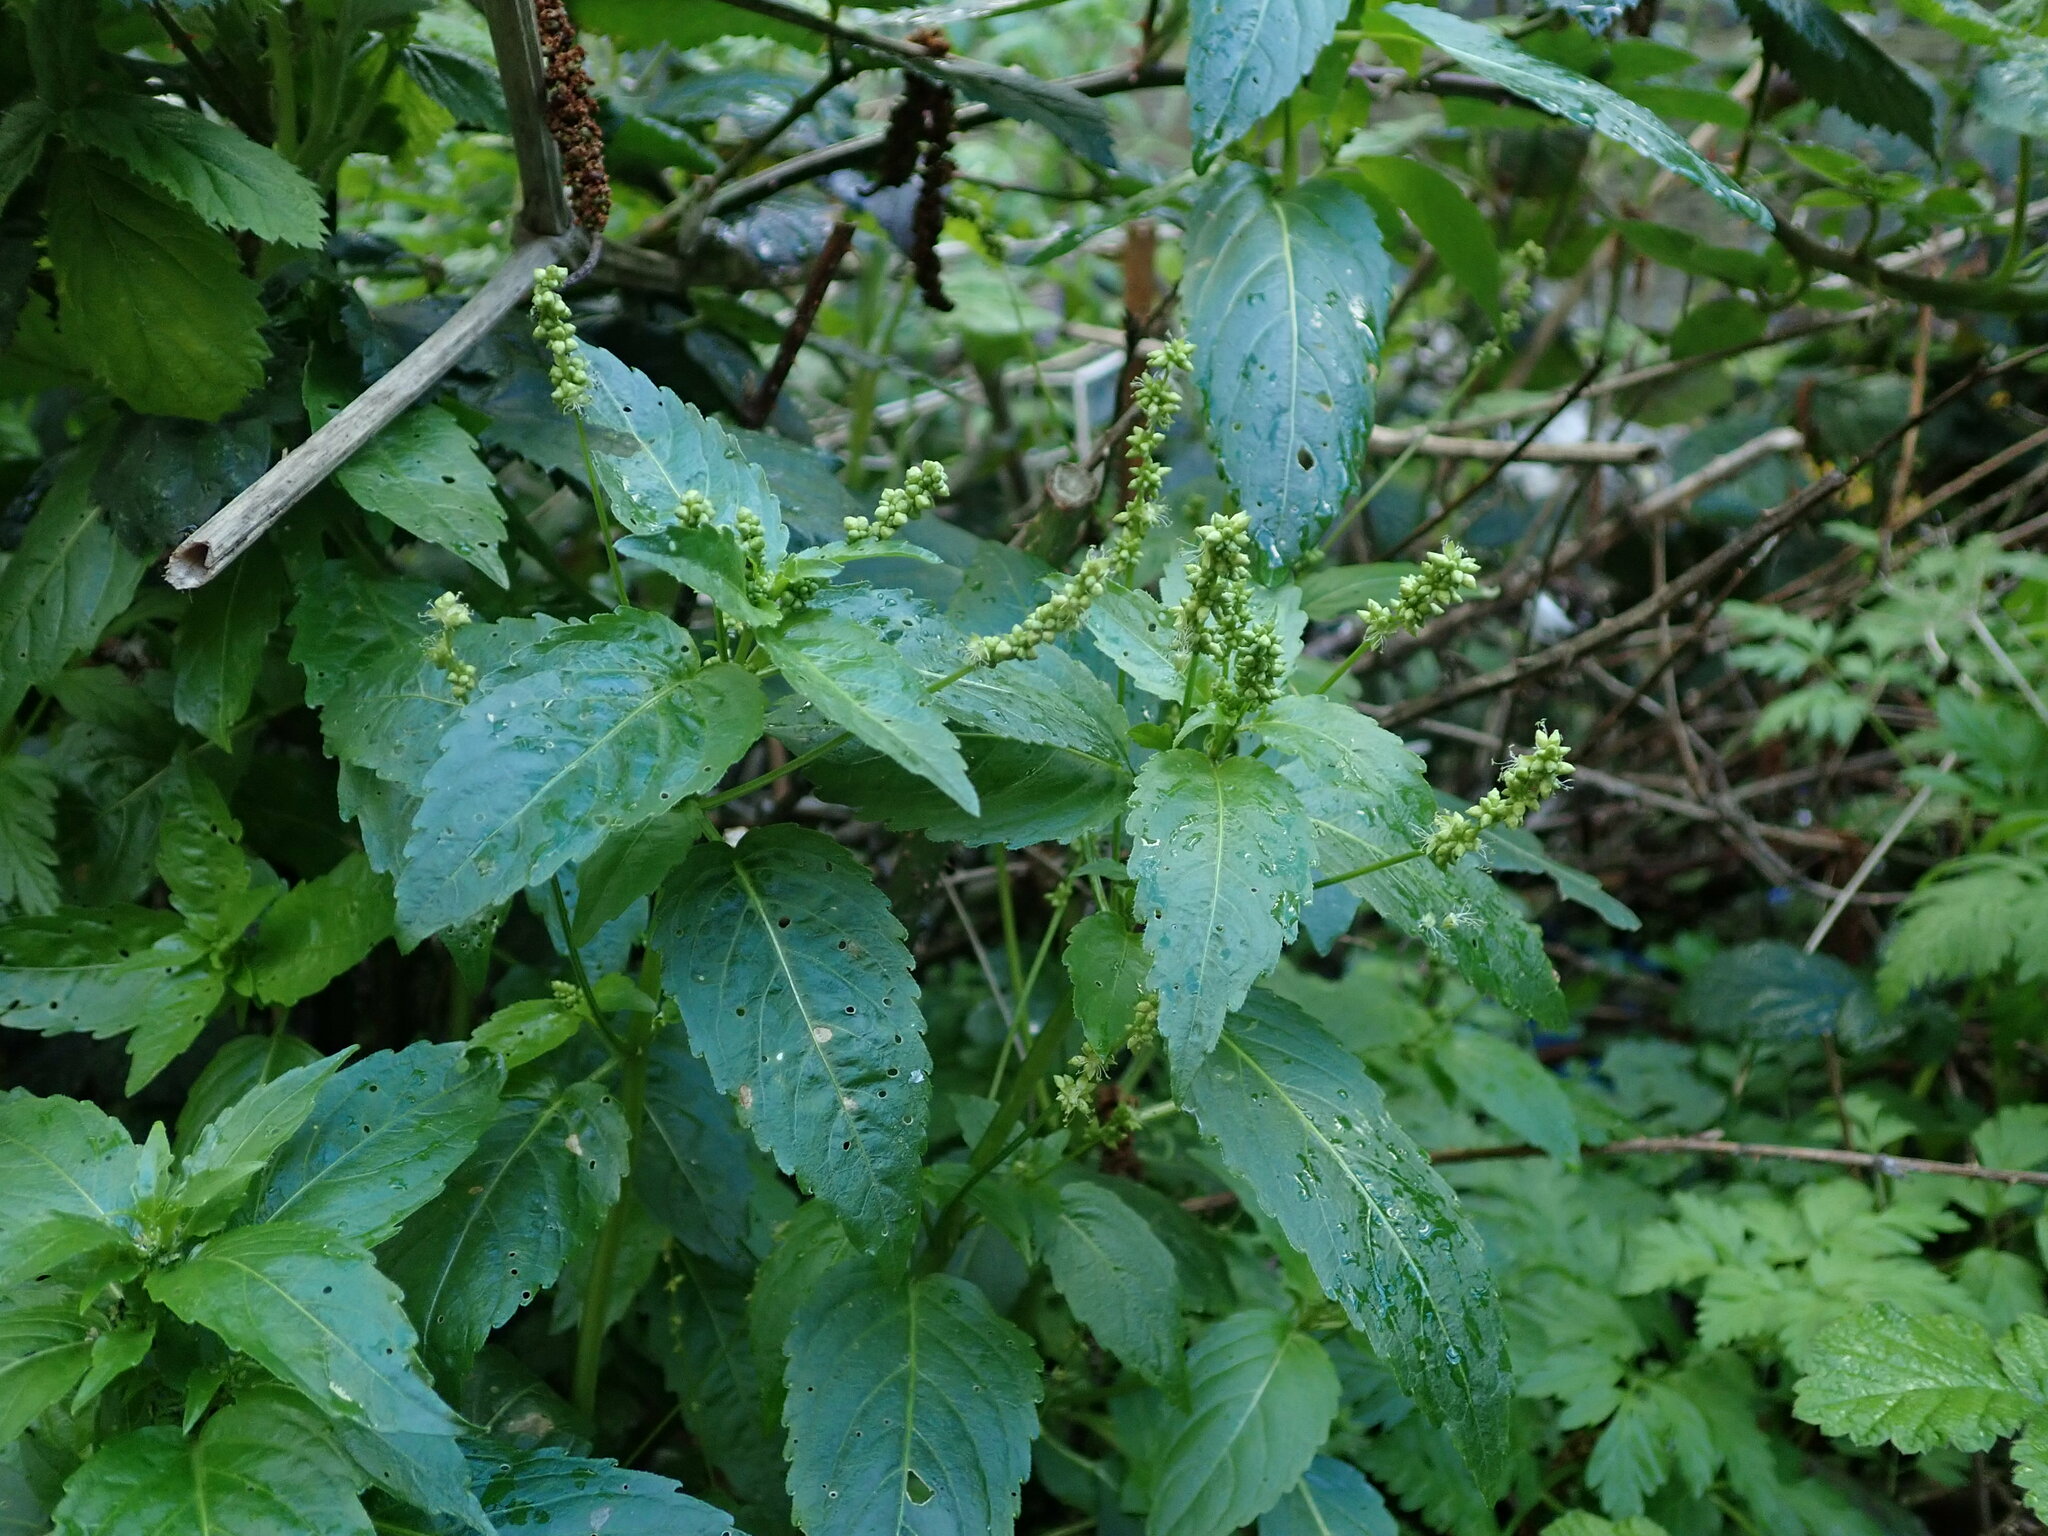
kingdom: Plantae
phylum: Tracheophyta
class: Magnoliopsida
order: Malpighiales
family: Euphorbiaceae
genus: Mercurialis
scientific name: Mercurialis annua
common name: Annual mercury
